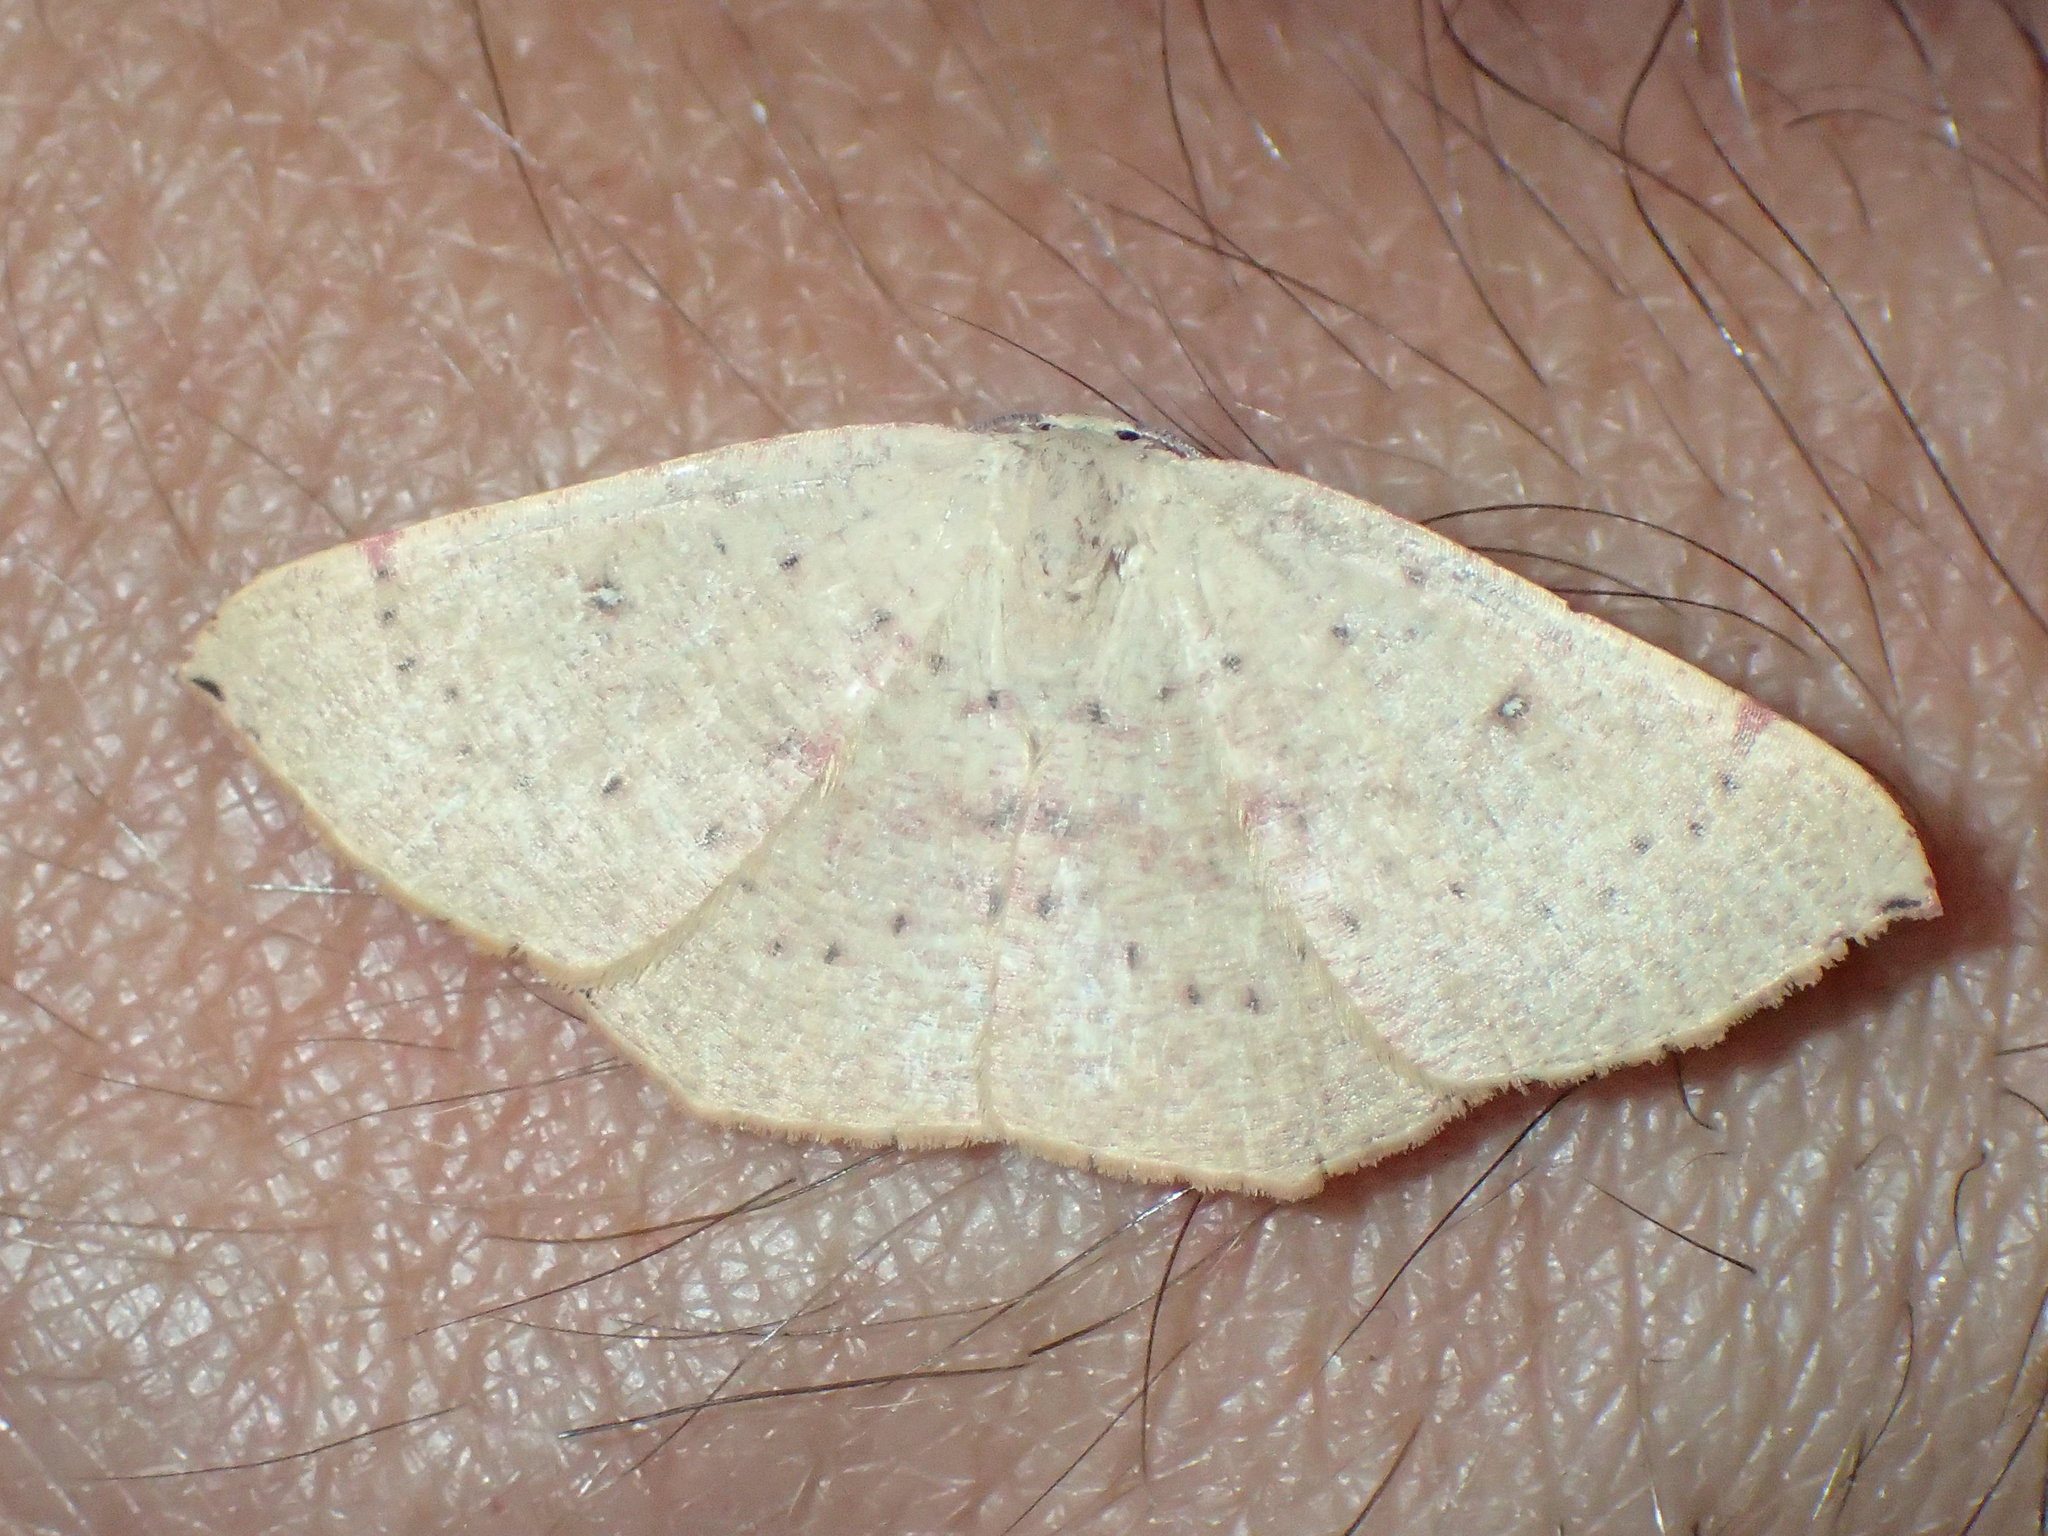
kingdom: Animalia
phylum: Arthropoda
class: Insecta
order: Lepidoptera
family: Geometridae
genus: Cyclophora
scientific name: Cyclophora puppillaria
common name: Blair's mocha
